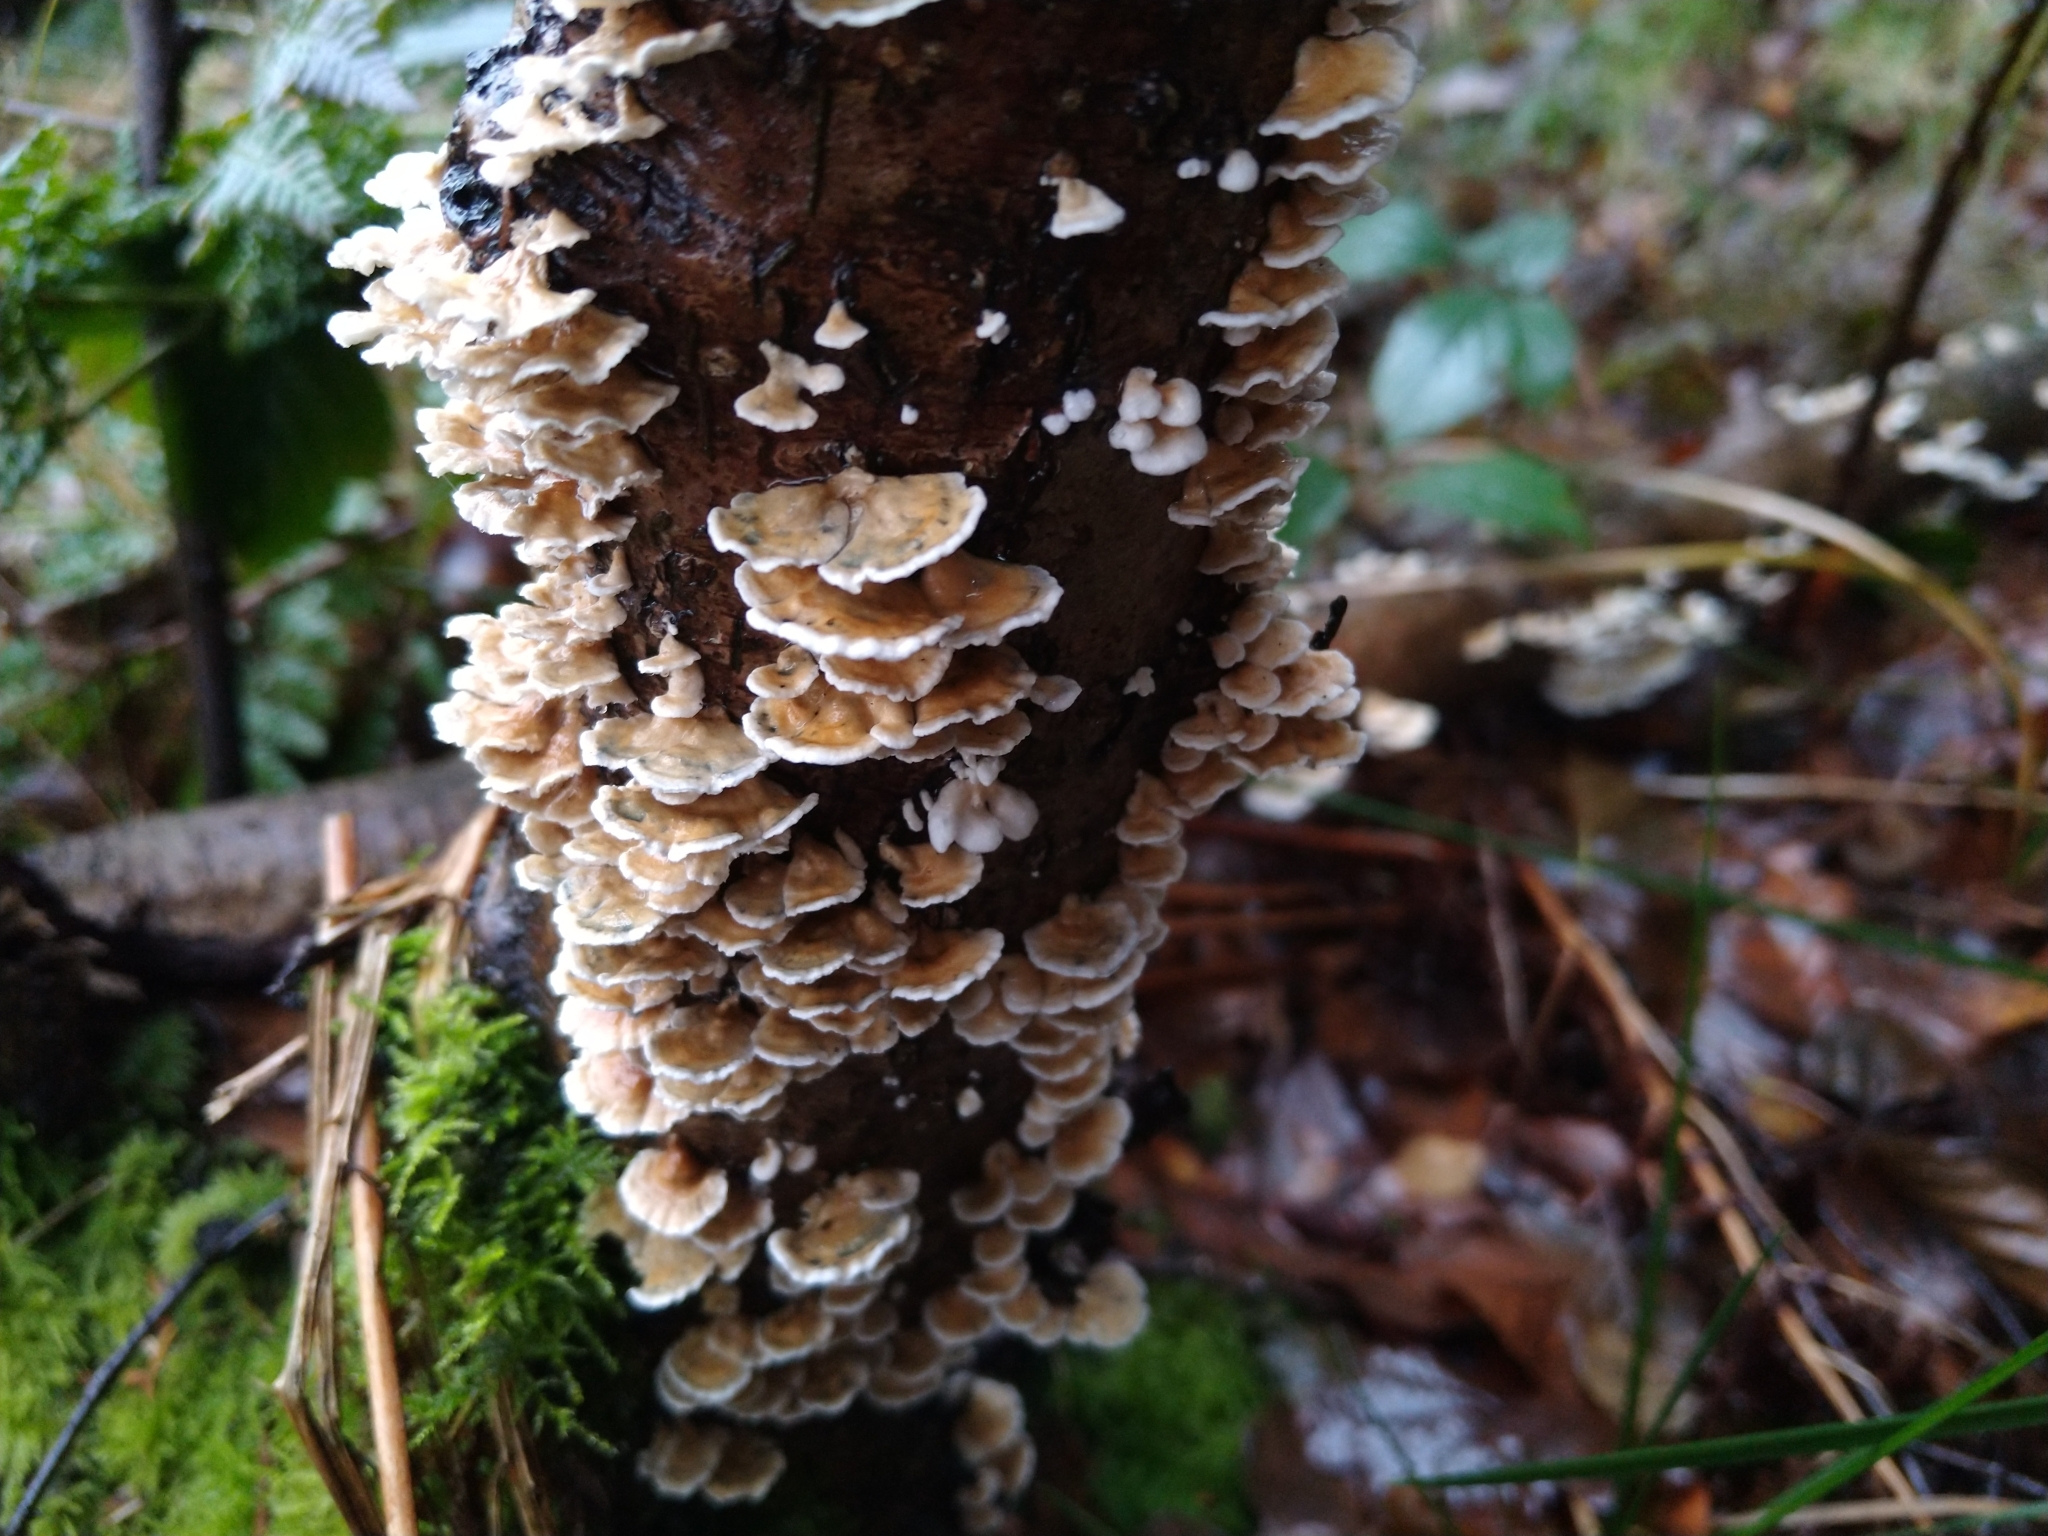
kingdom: Fungi
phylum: Basidiomycota
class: Agaricomycetes
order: Amylocorticiales
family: Amylocorticiaceae
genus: Plicaturopsis
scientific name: Plicaturopsis crispa
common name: Crimped gill
